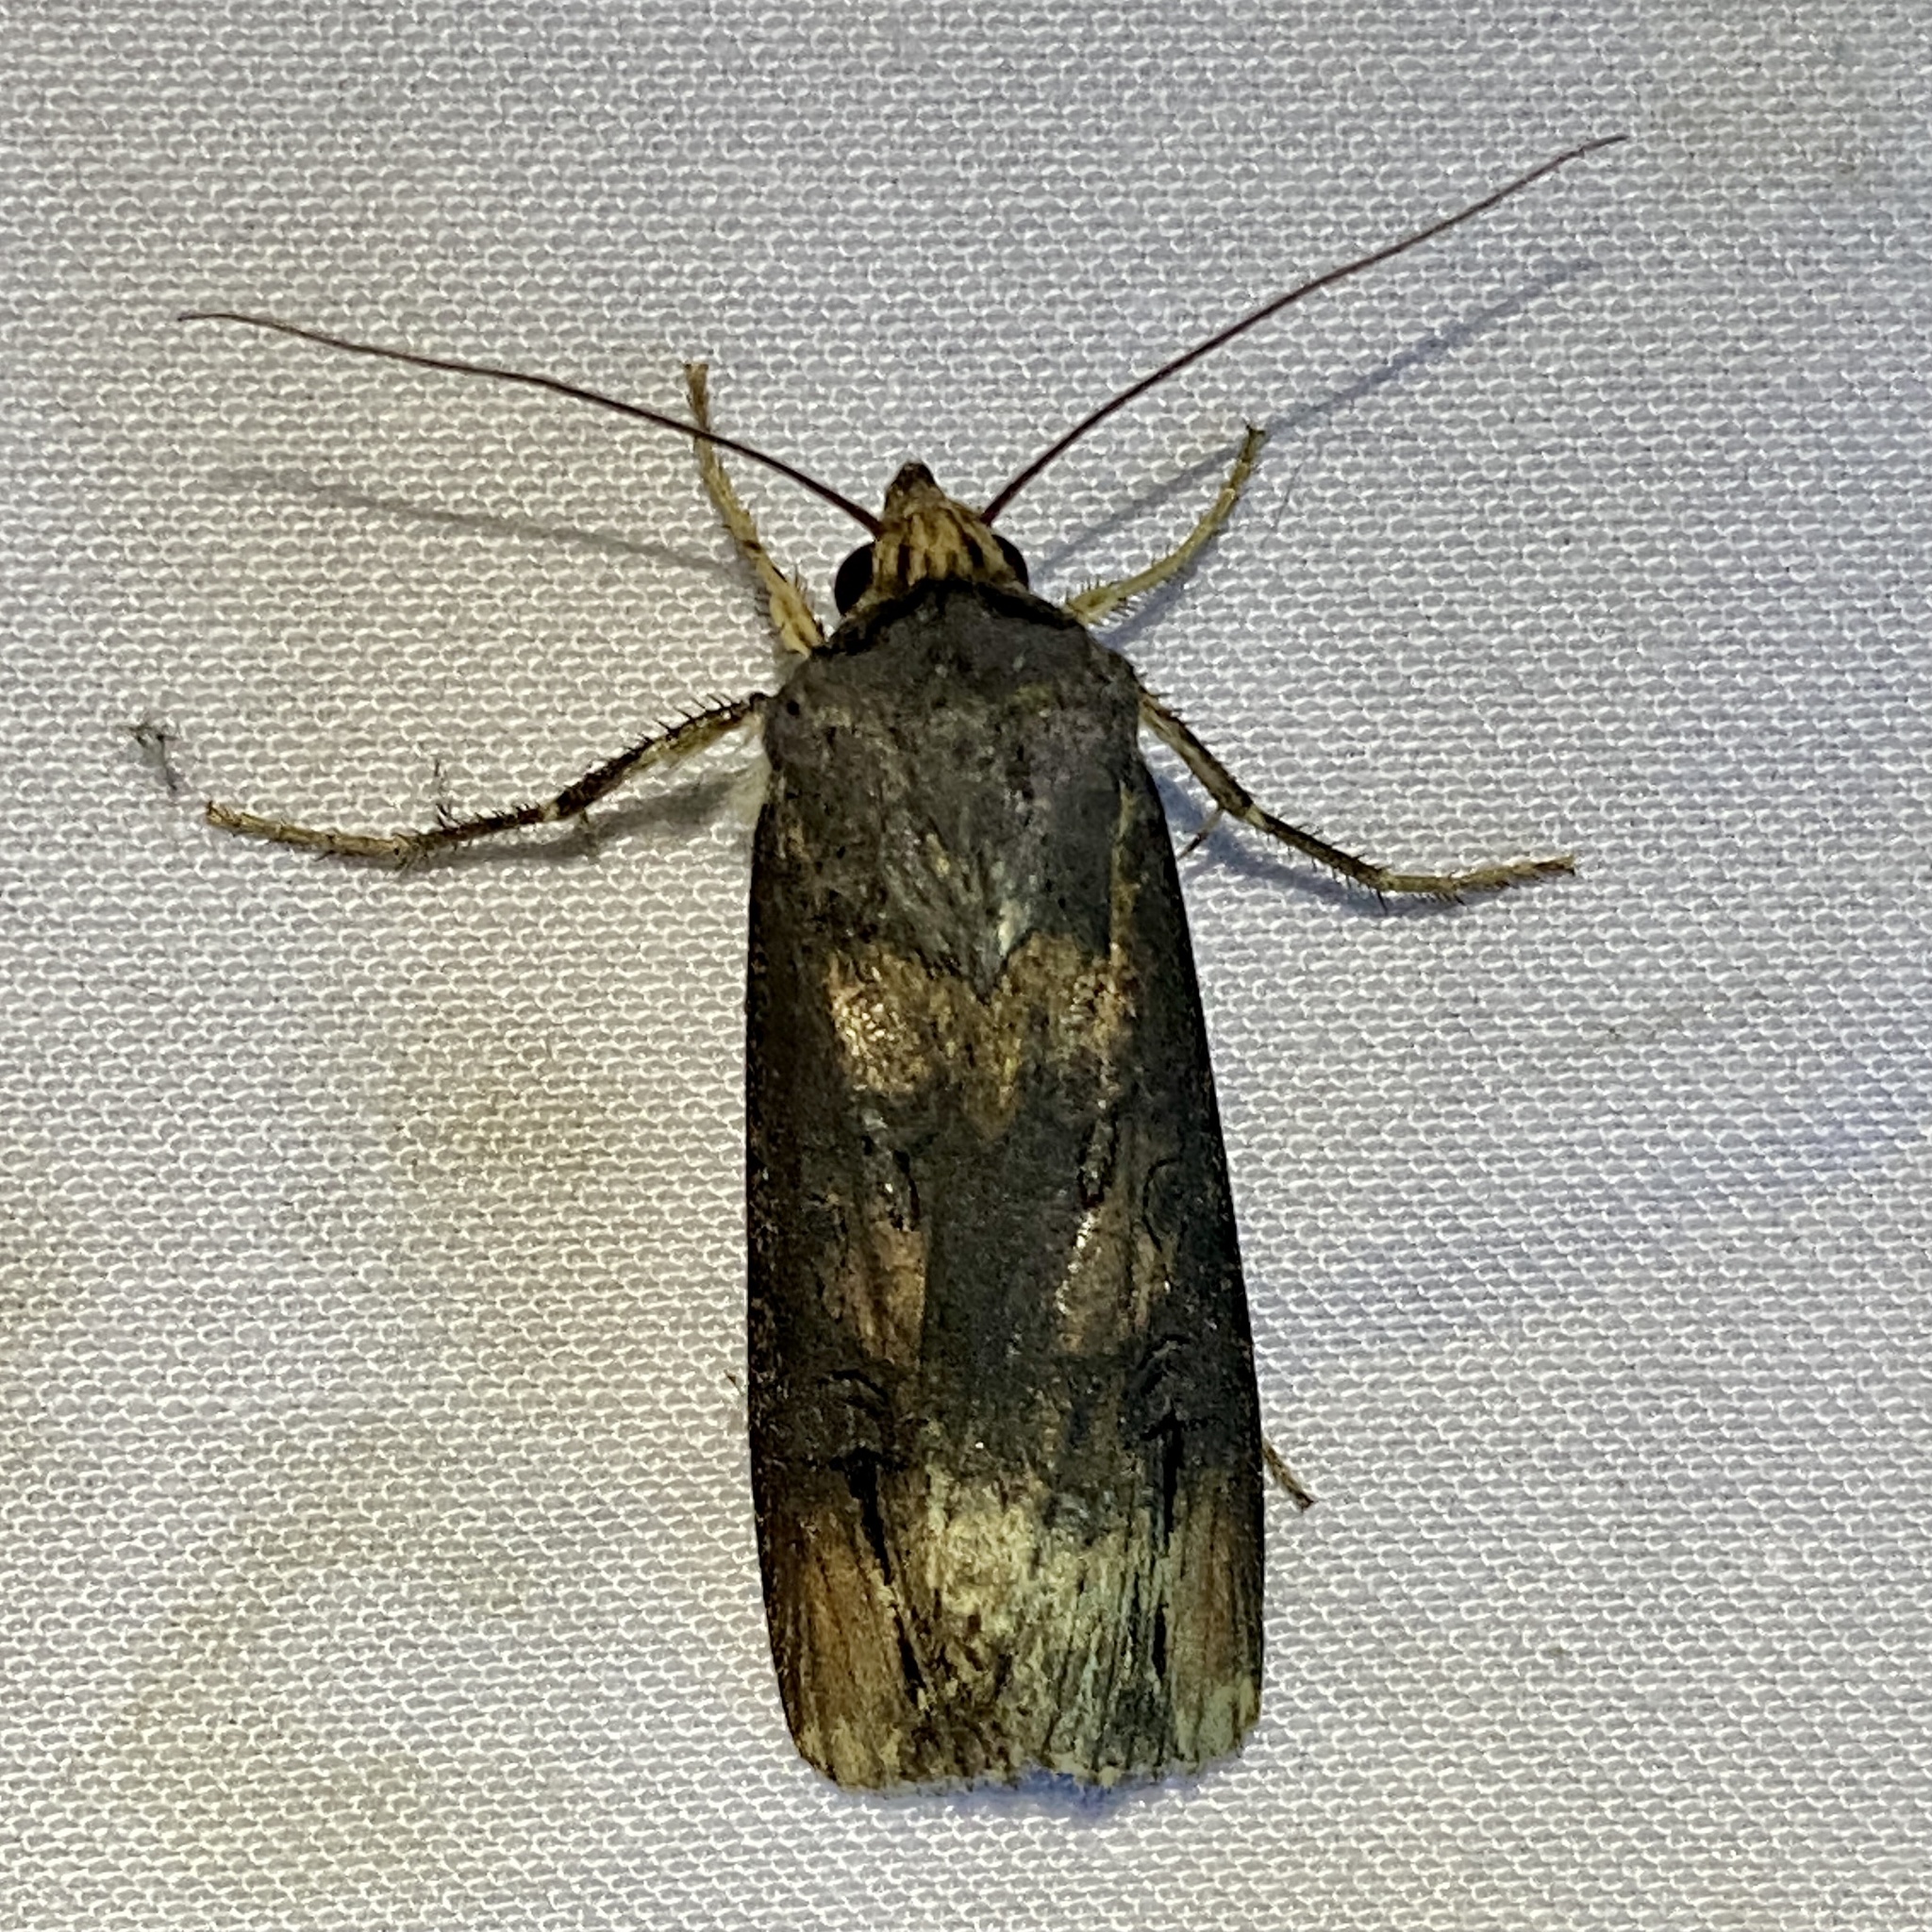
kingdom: Animalia
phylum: Arthropoda
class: Insecta
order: Lepidoptera
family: Noctuidae
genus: Agrotis
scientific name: Agrotis ipsilon
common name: Dark sword-grass
